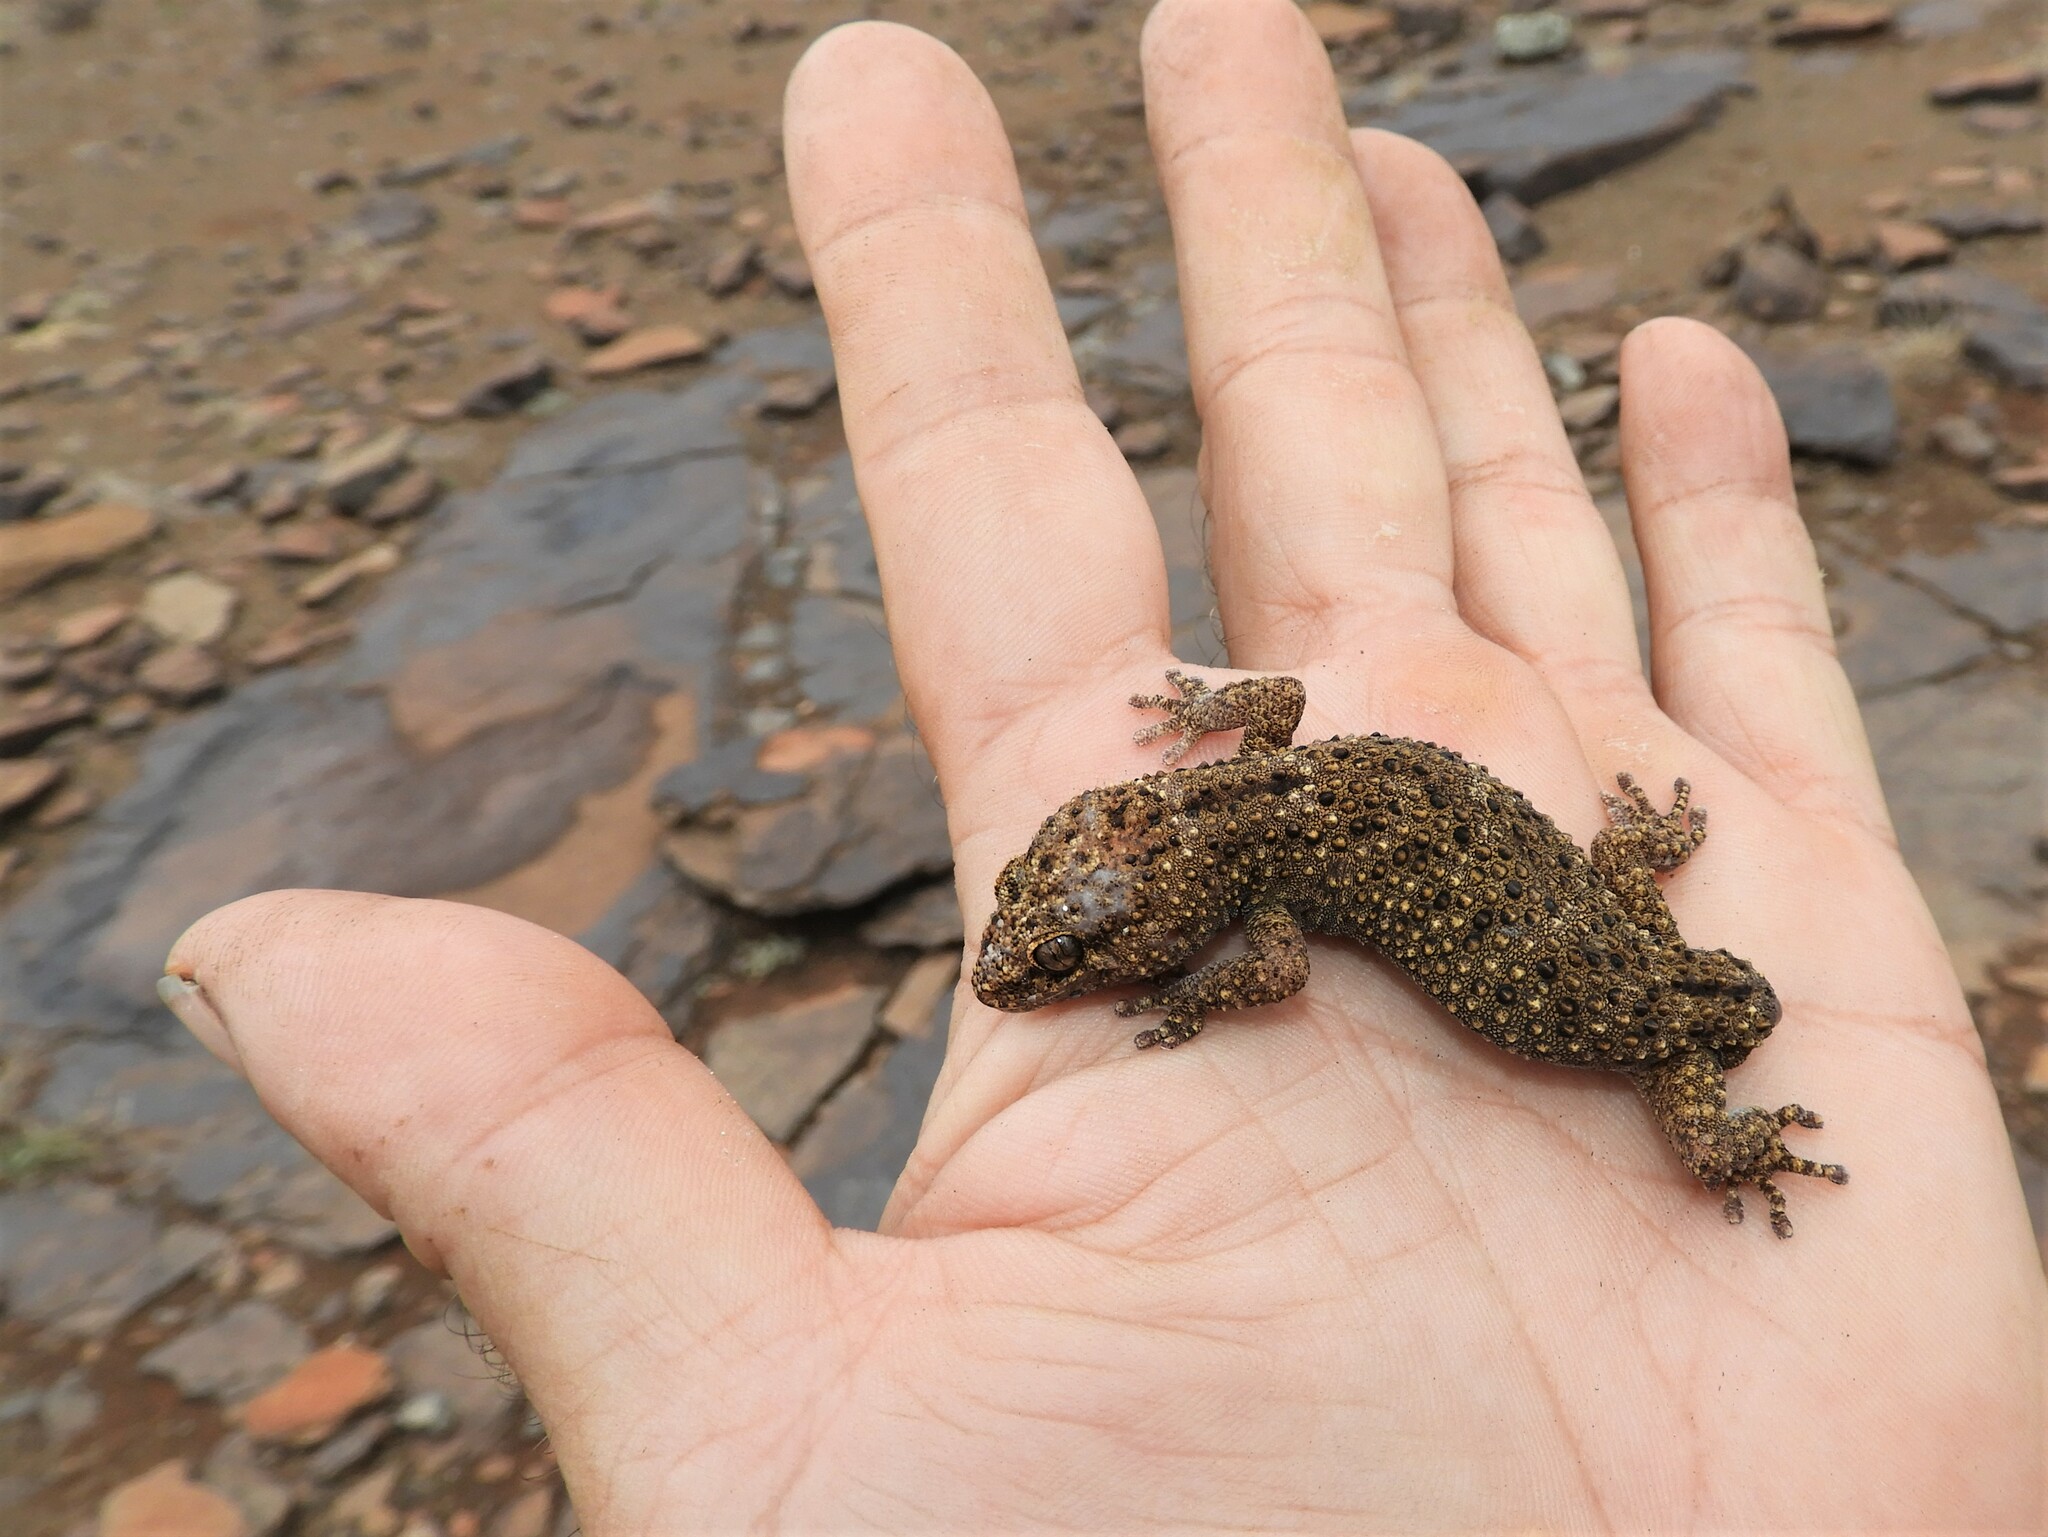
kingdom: Animalia
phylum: Chordata
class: Squamata
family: Gekkonidae
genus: Pachydactylus
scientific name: Pachydactylus capensis
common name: Cape gecko
